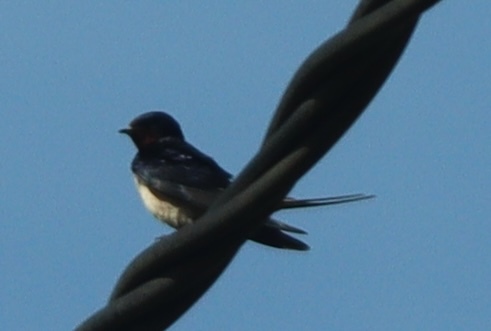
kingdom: Animalia
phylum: Chordata
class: Aves
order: Passeriformes
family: Hirundinidae
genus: Hirundo
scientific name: Hirundo rustica
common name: Barn swallow
